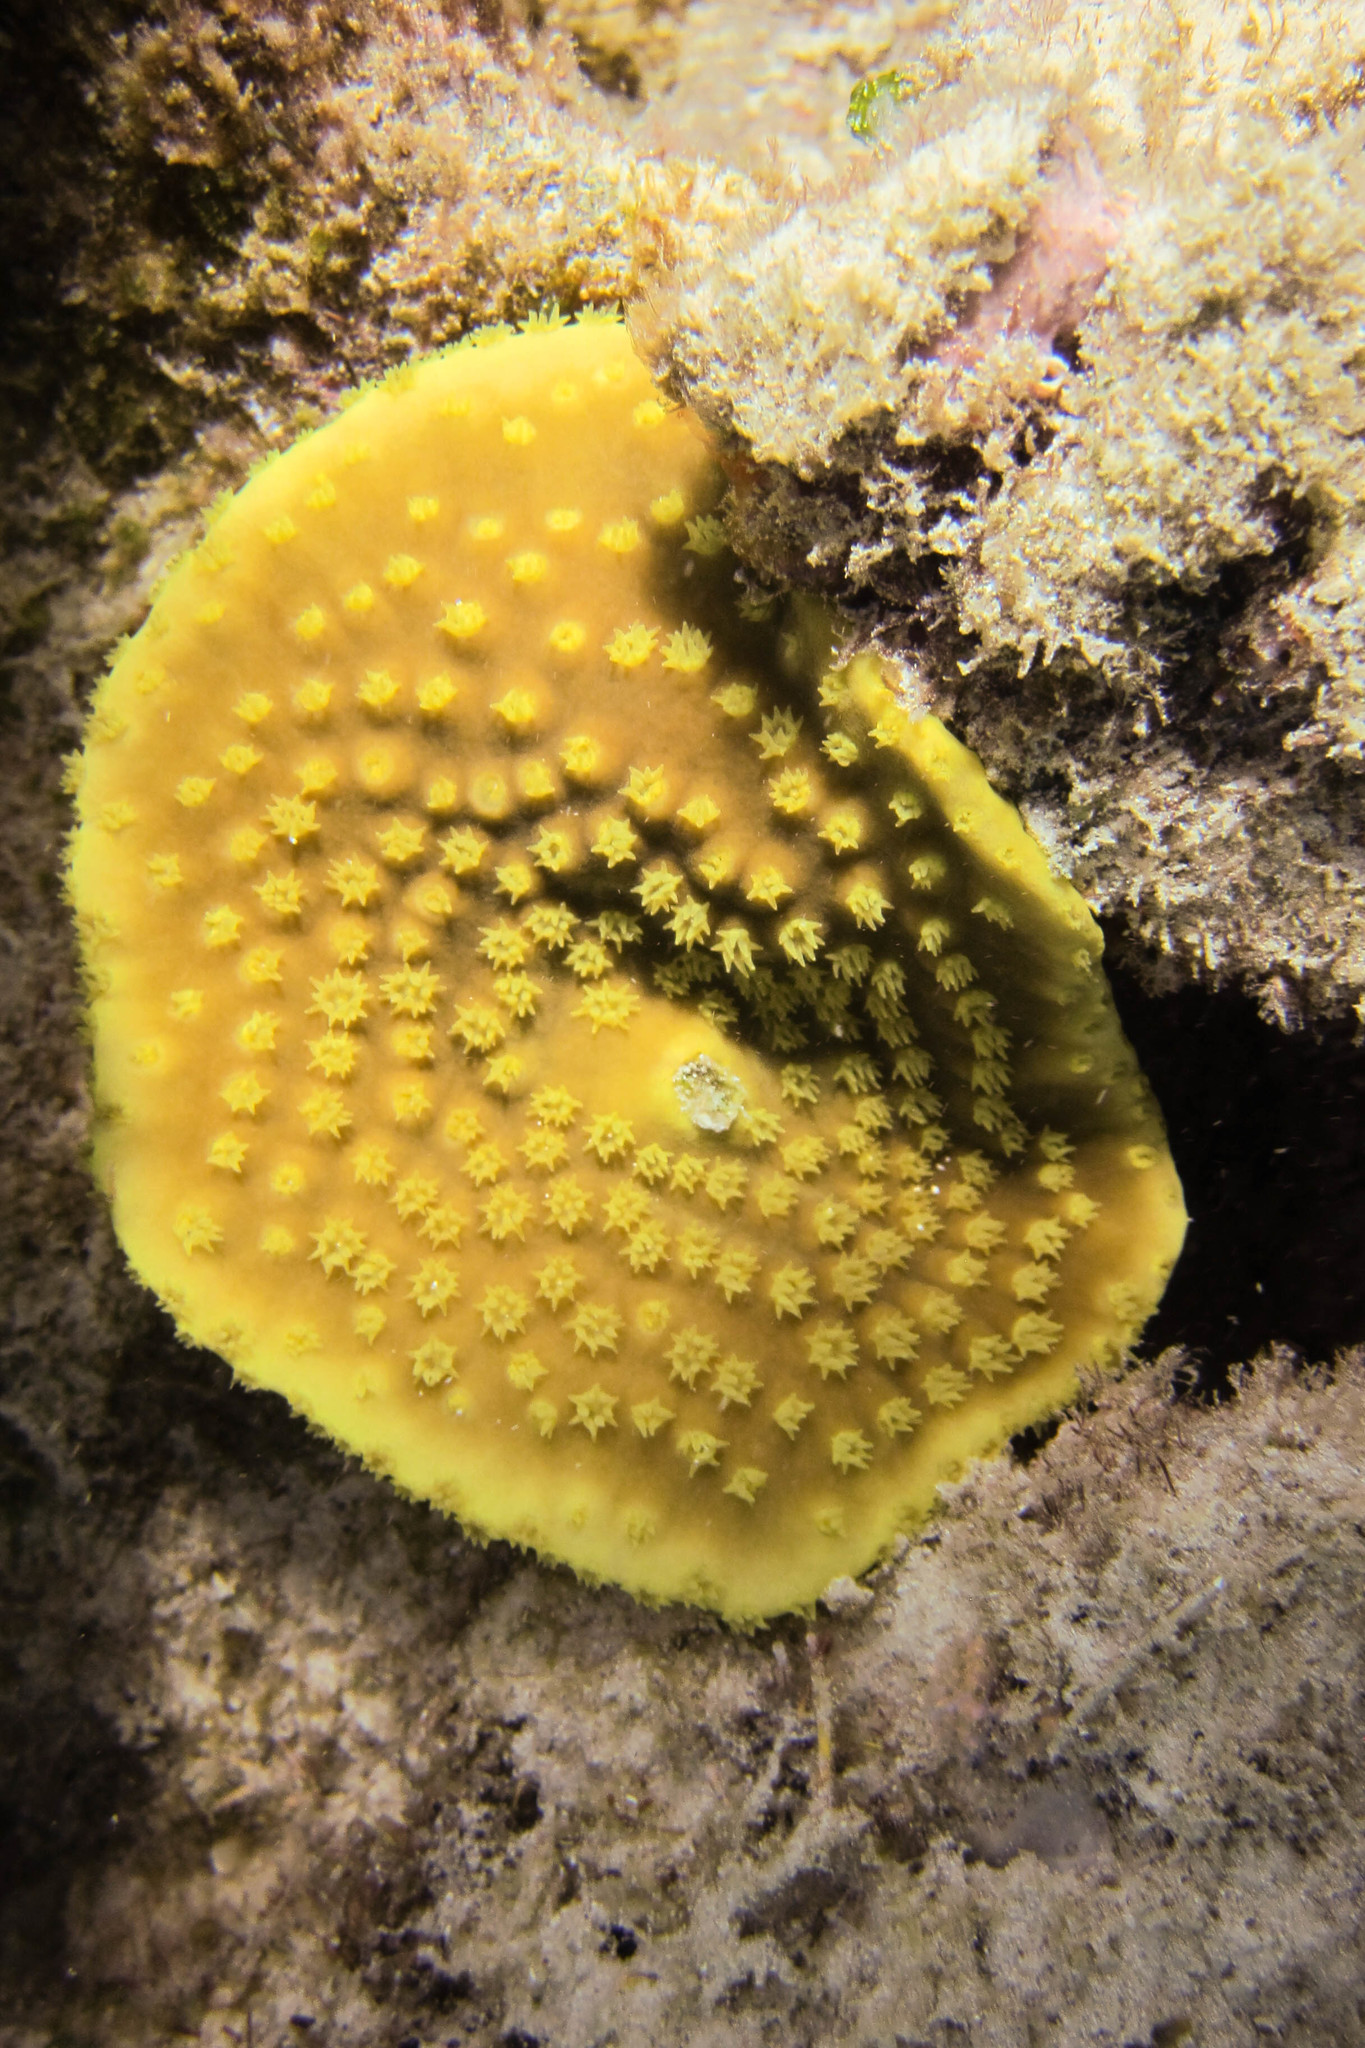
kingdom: Animalia
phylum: Cnidaria
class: Anthozoa
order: Scleractinia
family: Dendrophylliidae
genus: Turbinaria
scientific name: Turbinaria reniformis
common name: Disc coral
